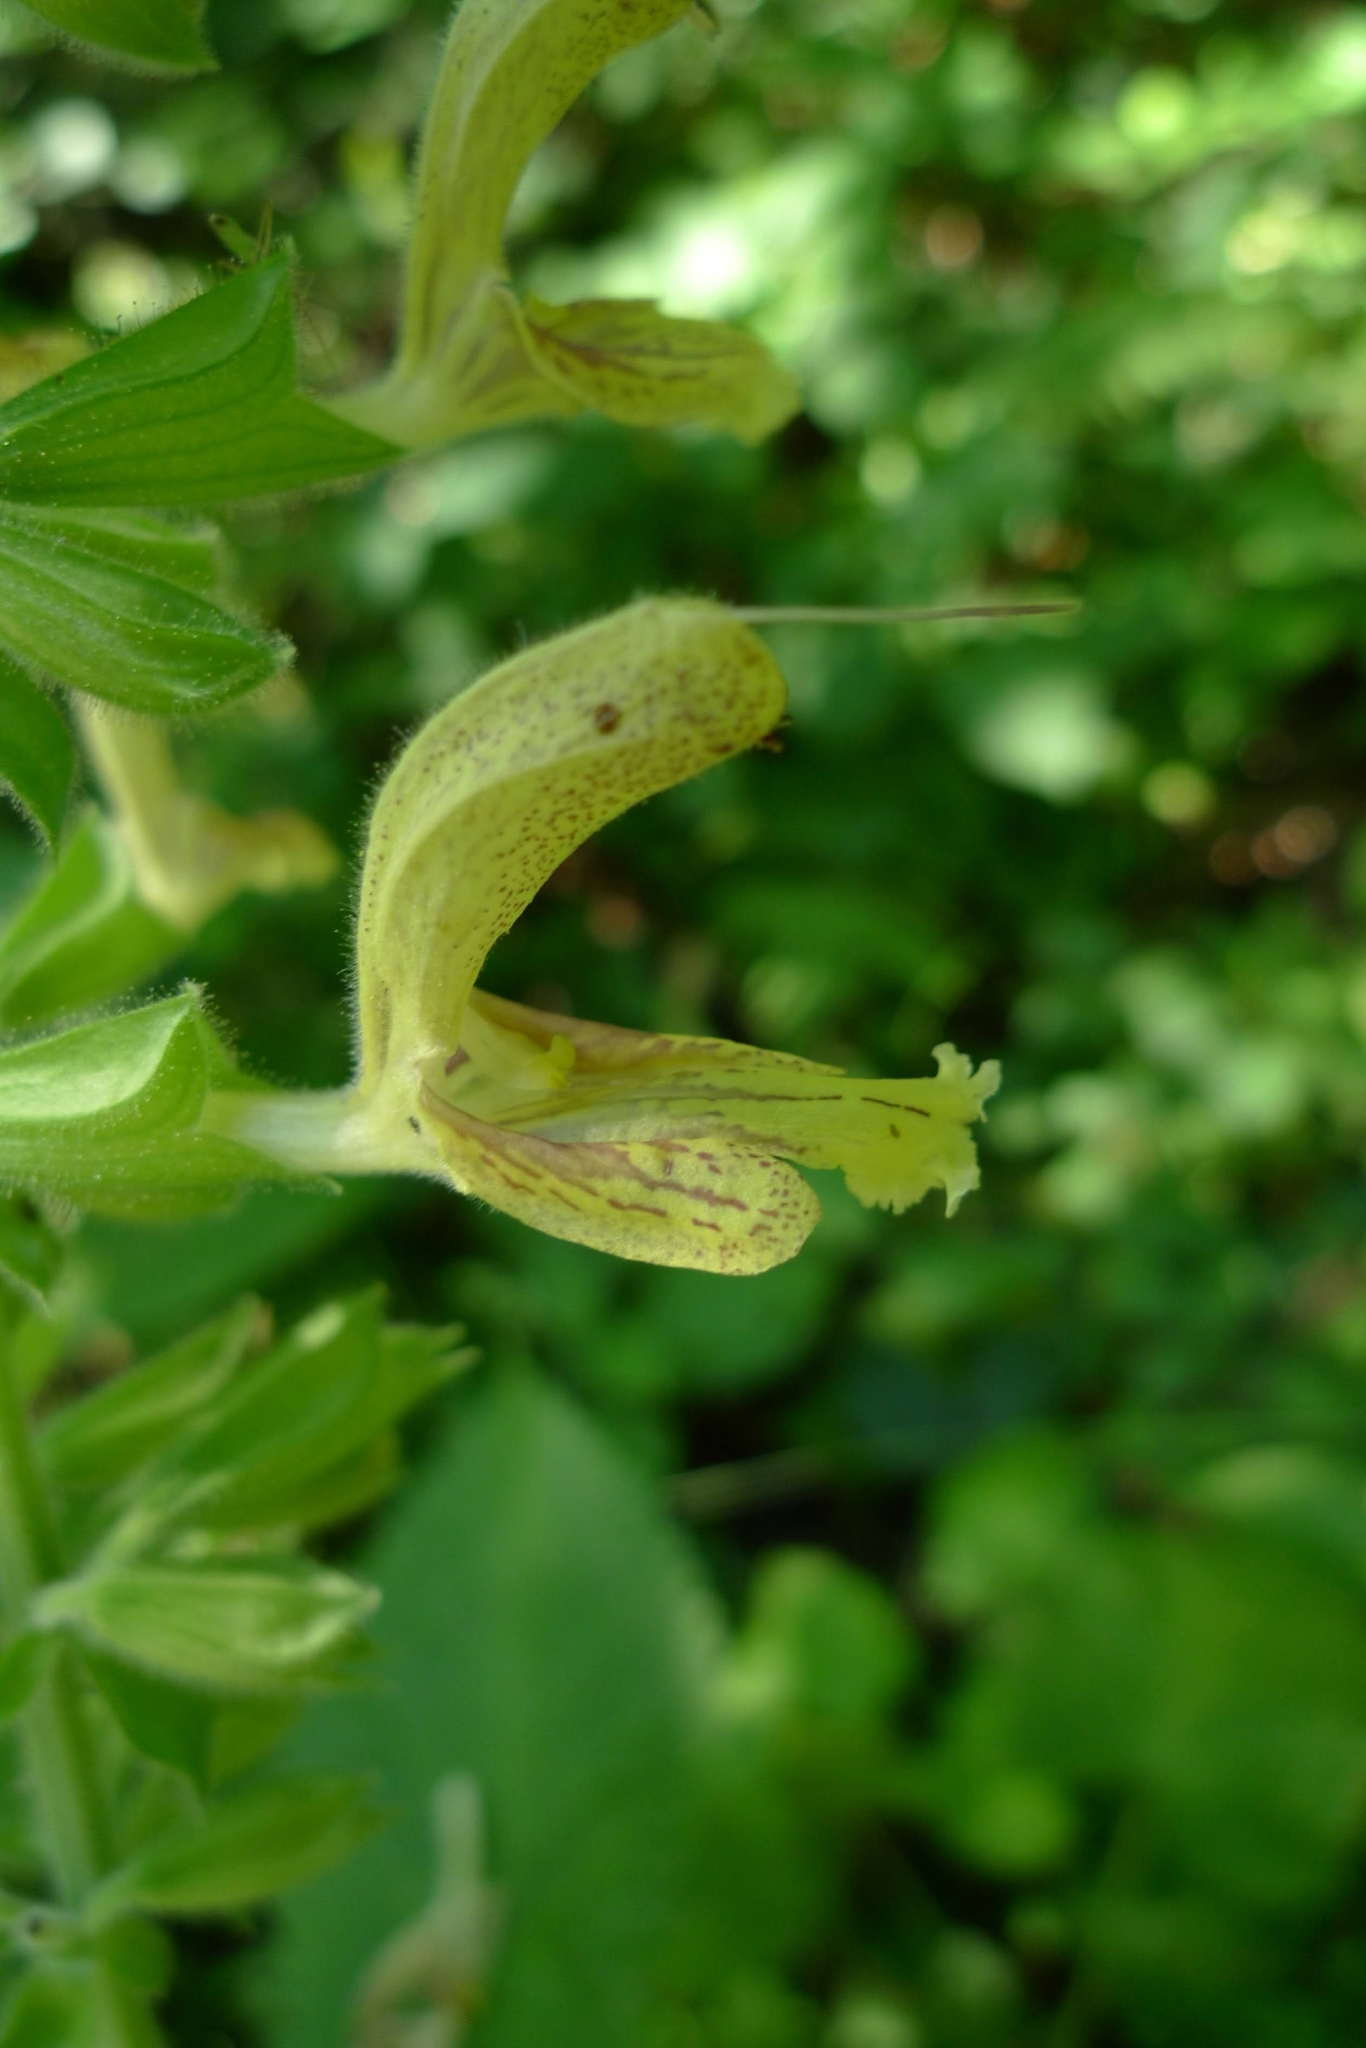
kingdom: Plantae
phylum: Tracheophyta
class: Magnoliopsida
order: Lamiales
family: Lamiaceae
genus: Salvia
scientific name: Salvia glutinosa
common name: Sticky clary
